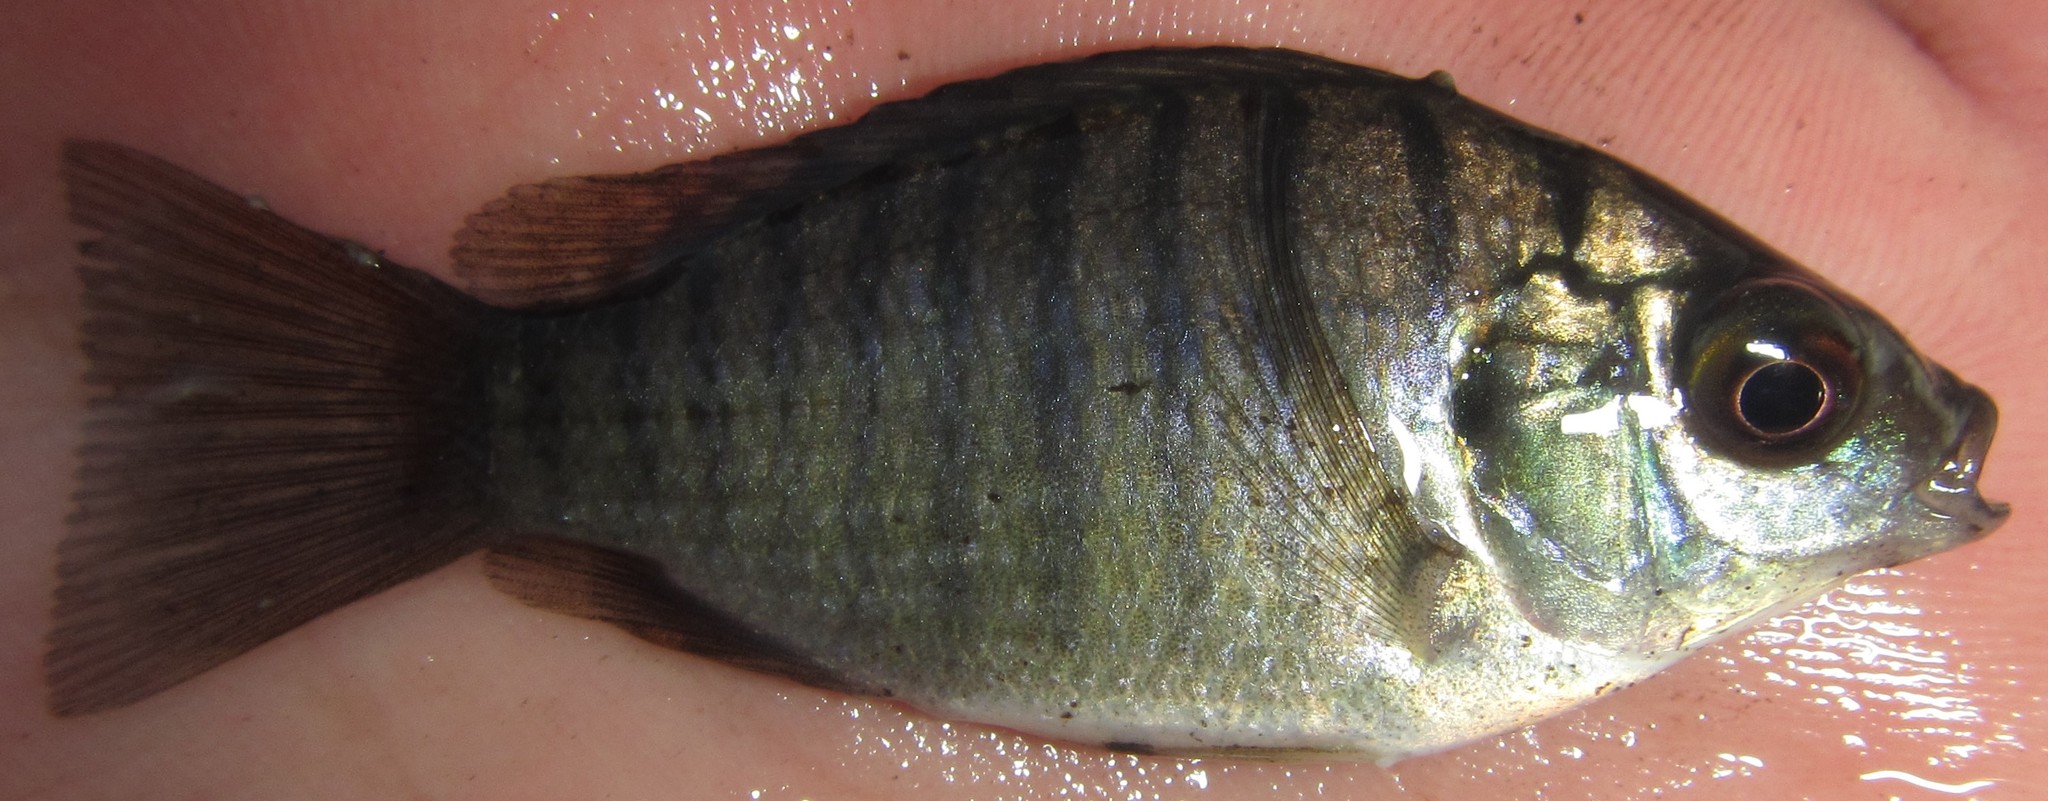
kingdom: Animalia
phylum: Chordata
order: Perciformes
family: Cichlidae
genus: Oreochromis
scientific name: Oreochromis macrochir
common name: Greenhead tilapia
